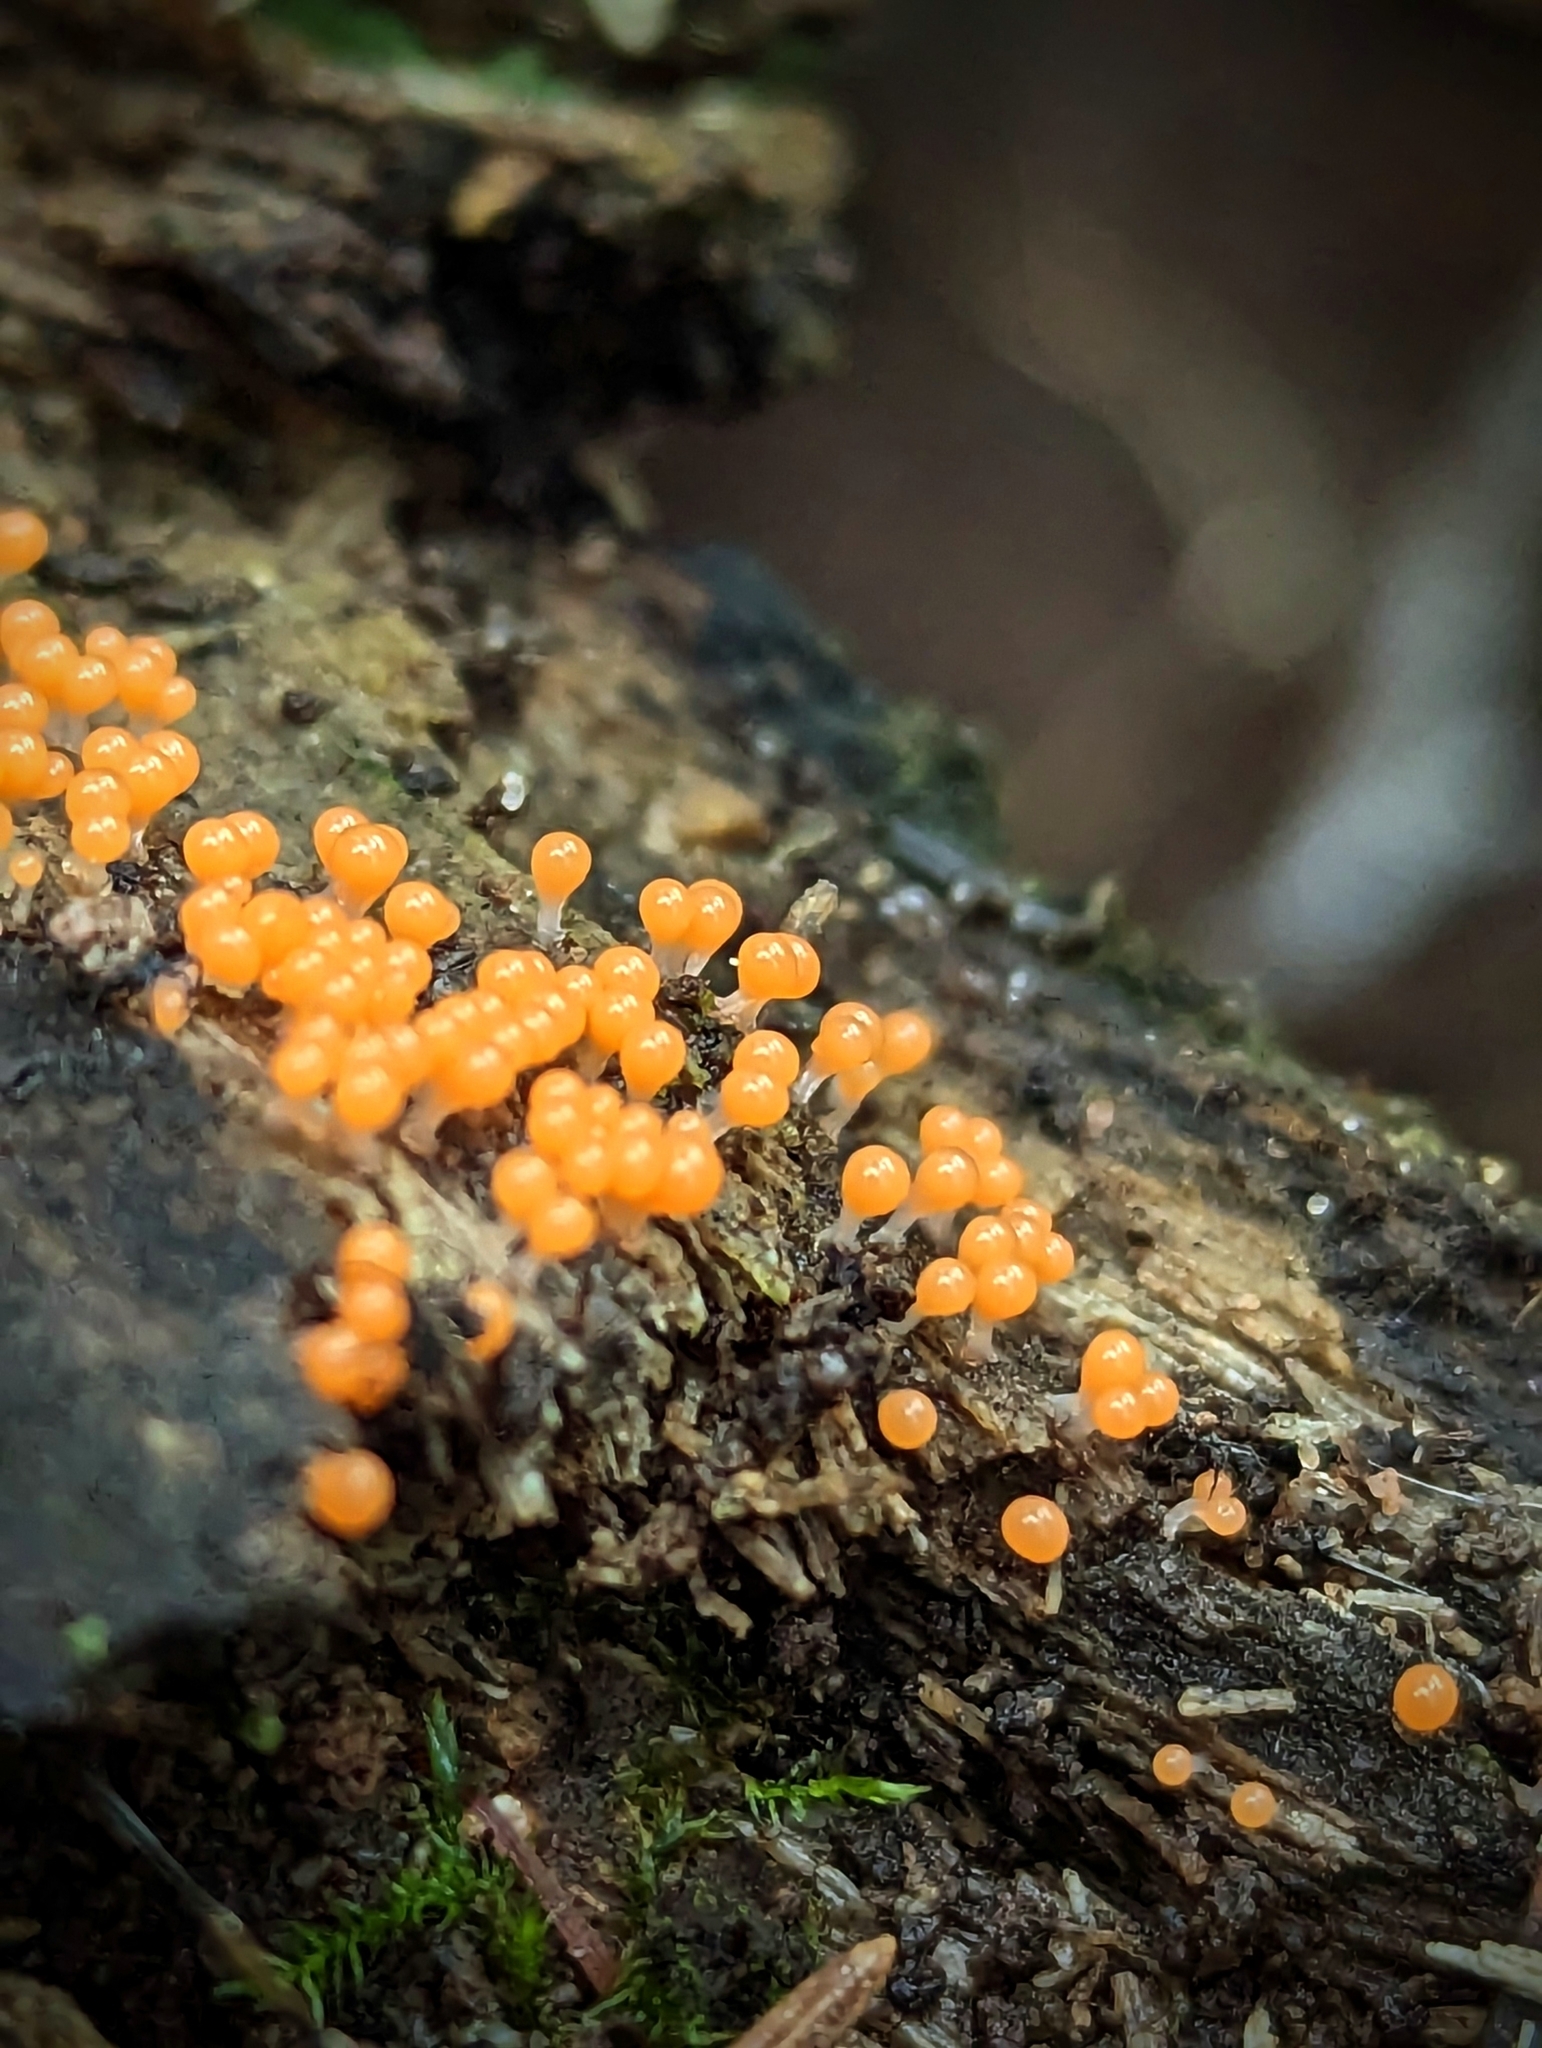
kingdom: Protozoa
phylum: Mycetozoa
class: Myxomycetes
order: Trichiales
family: Arcyriaceae
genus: Hemitrichia
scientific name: Hemitrichia decipiens
